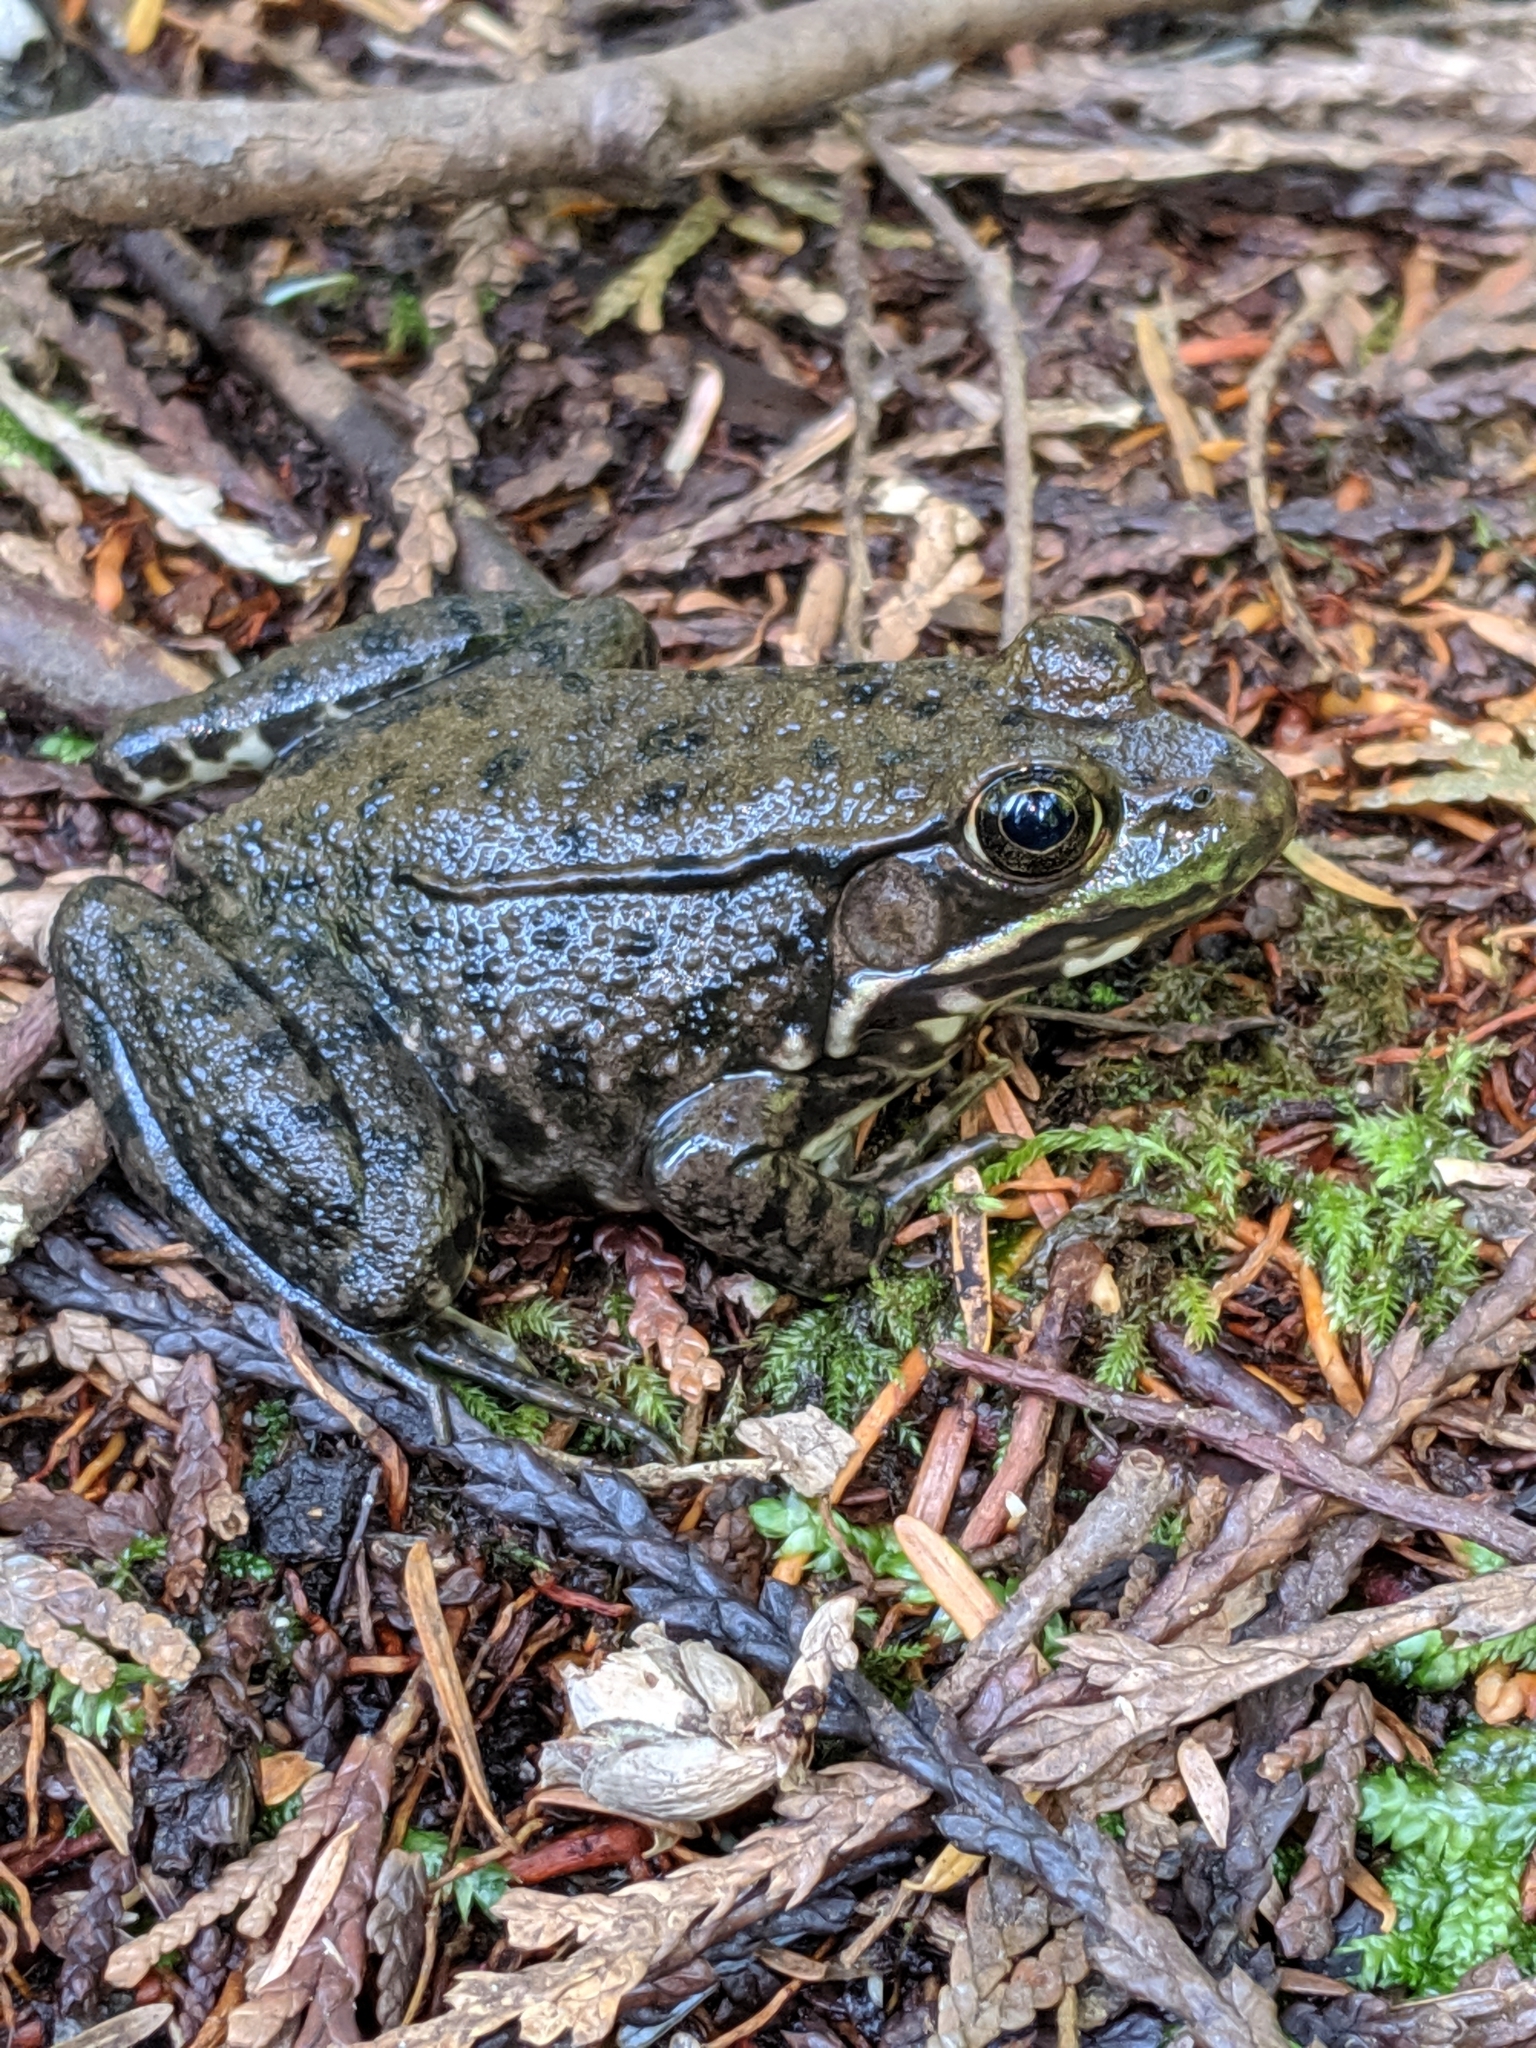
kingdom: Animalia
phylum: Chordata
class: Amphibia
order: Anura
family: Ranidae
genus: Lithobates
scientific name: Lithobates clamitans
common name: Green frog
